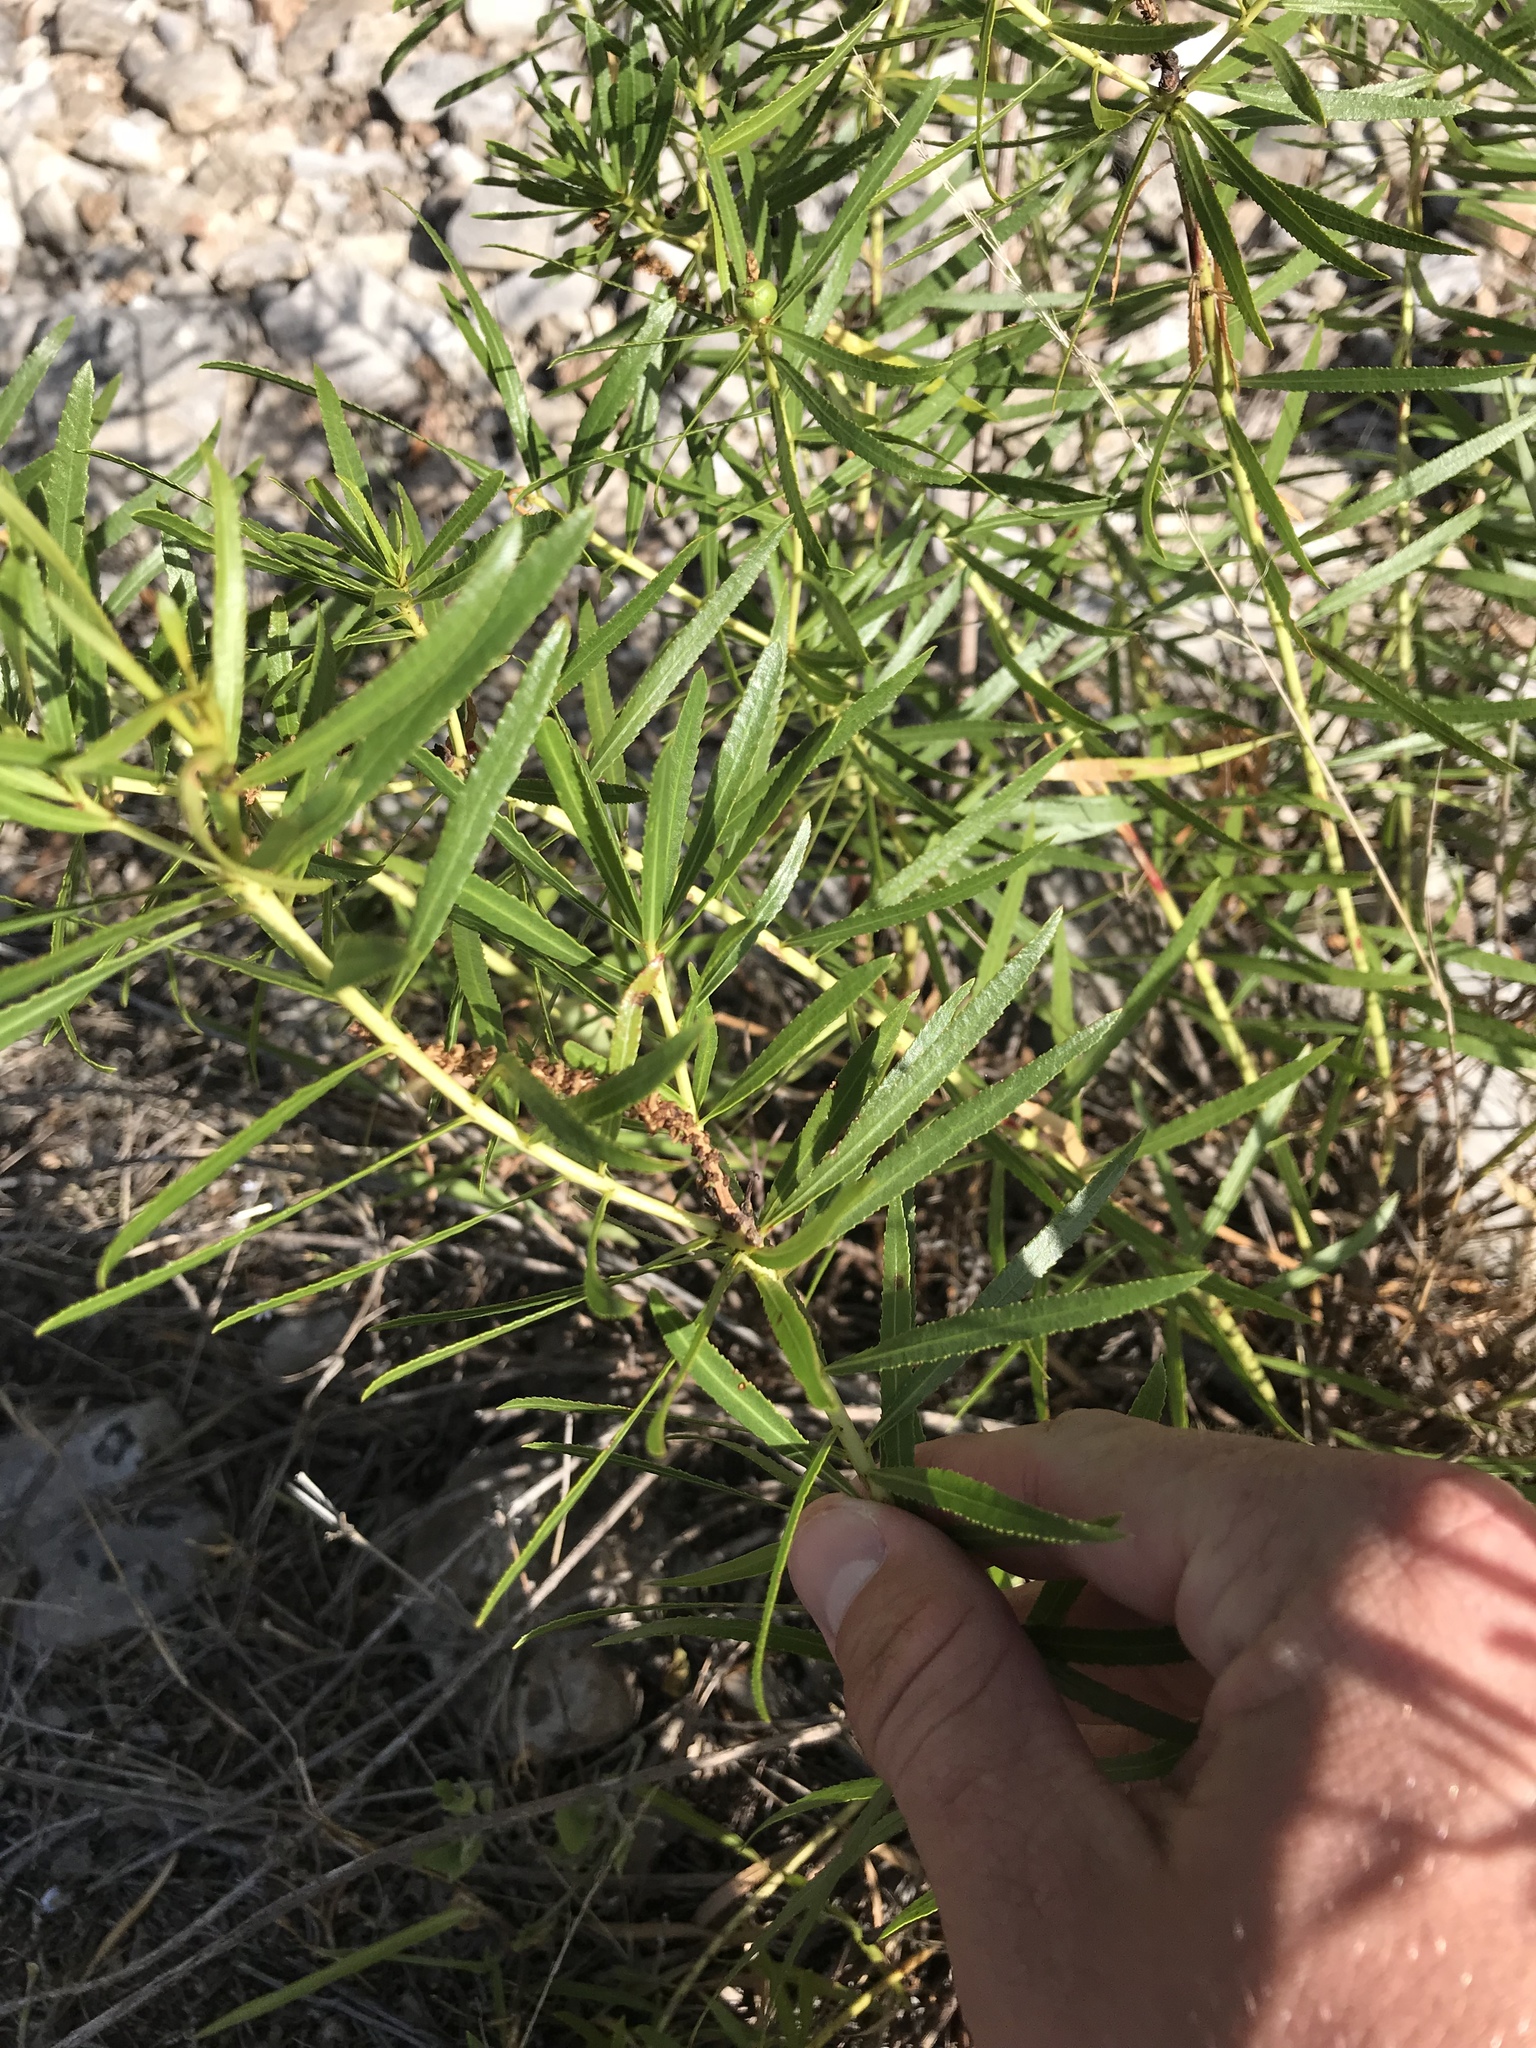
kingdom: Plantae
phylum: Tracheophyta
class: Magnoliopsida
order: Malpighiales
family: Euphorbiaceae
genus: Stillingia
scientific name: Stillingia texana
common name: Texas stillingia
